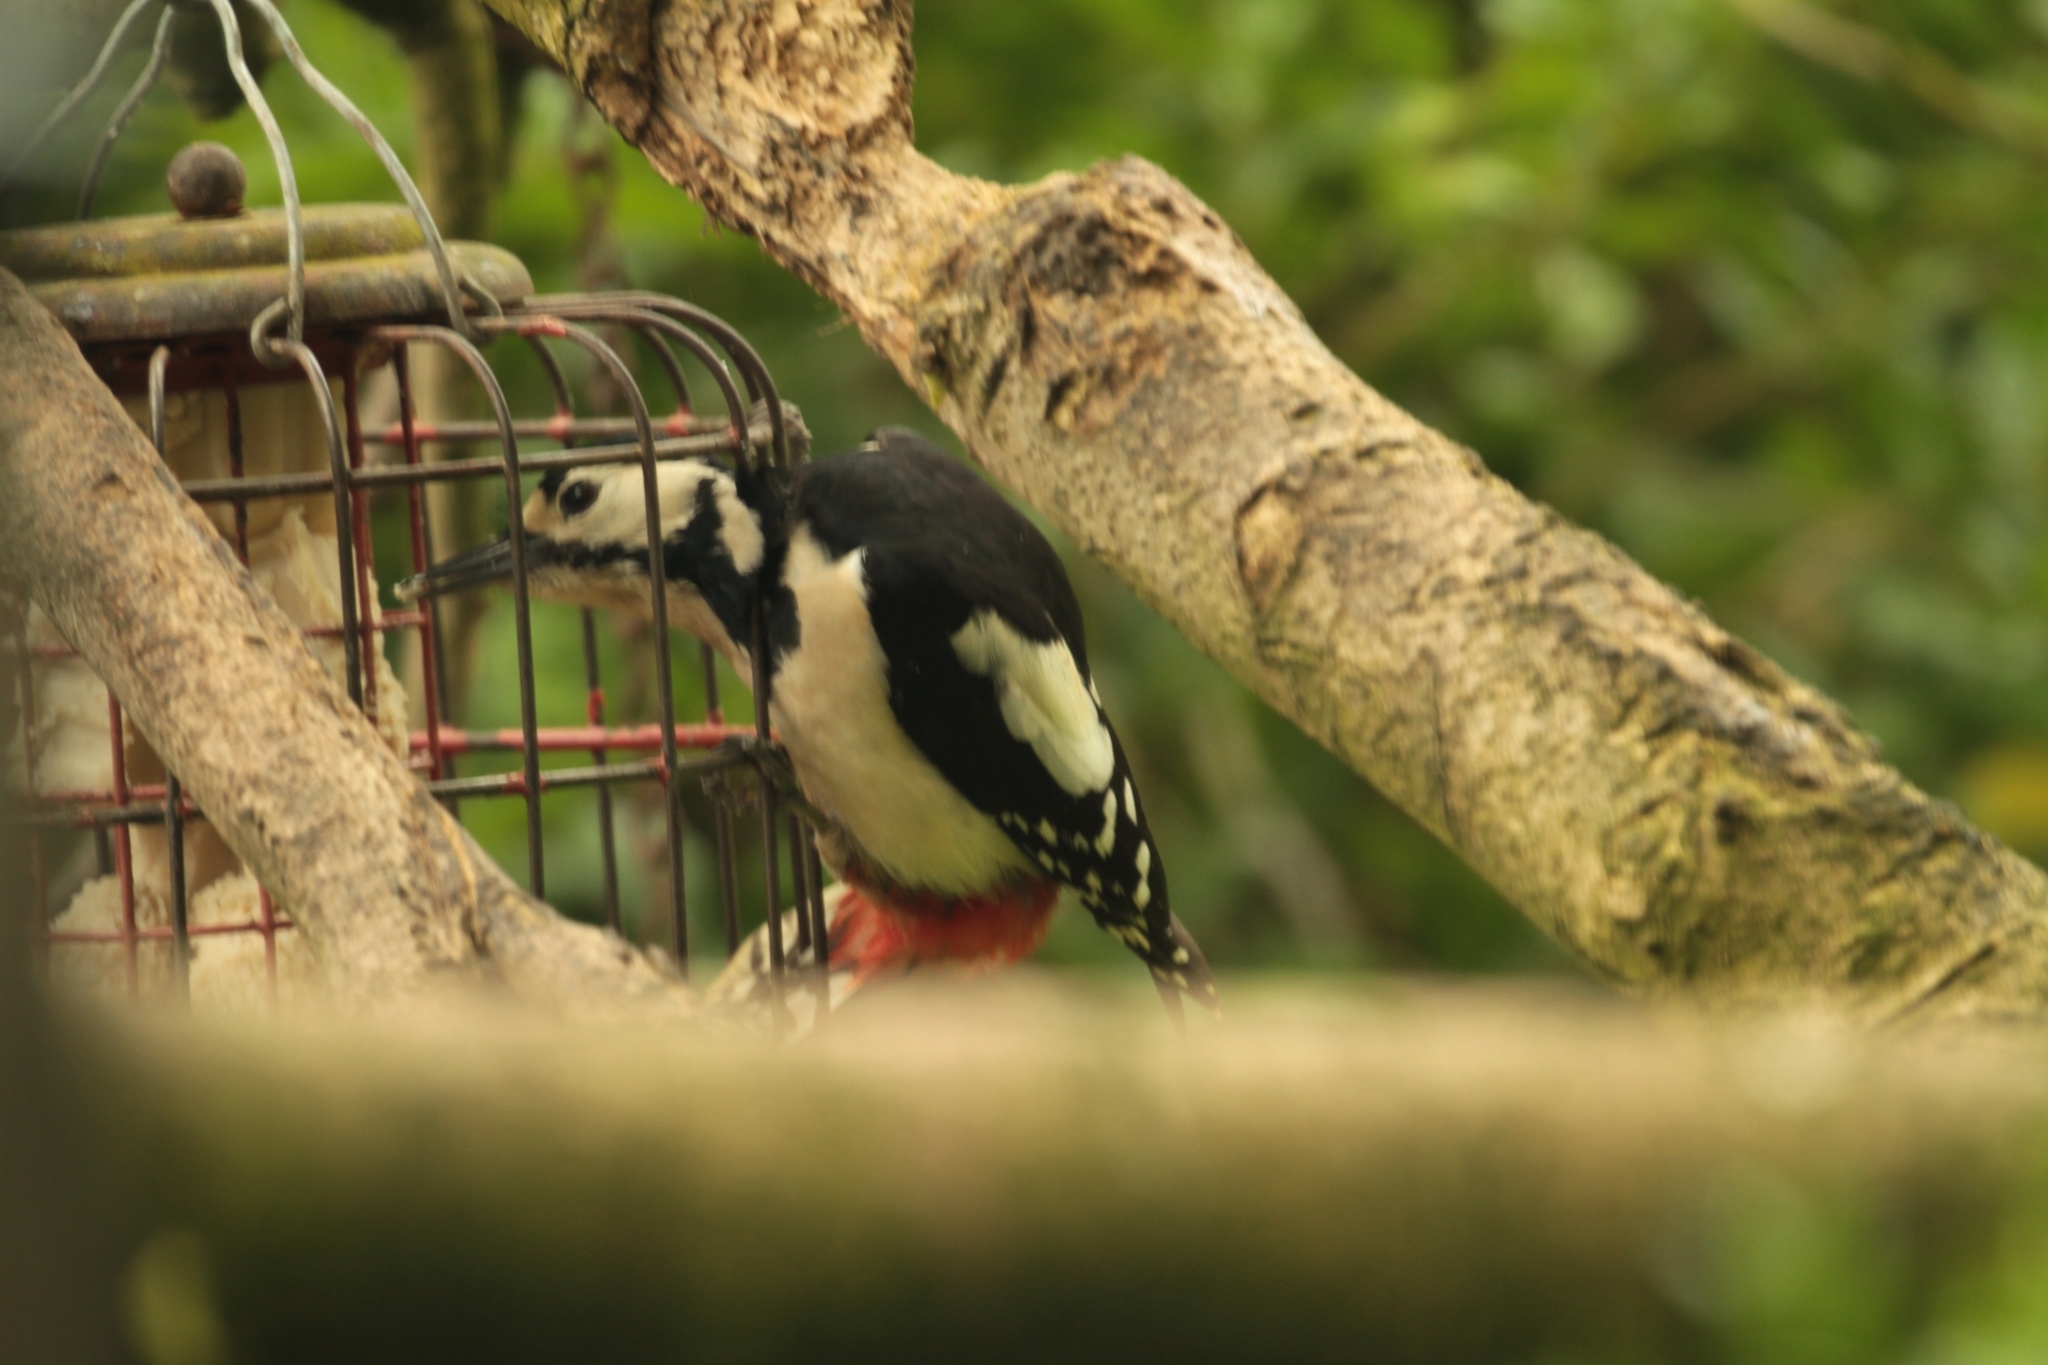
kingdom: Animalia
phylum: Chordata
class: Aves
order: Piciformes
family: Picidae
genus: Dendrocopos
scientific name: Dendrocopos major
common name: Great spotted woodpecker
